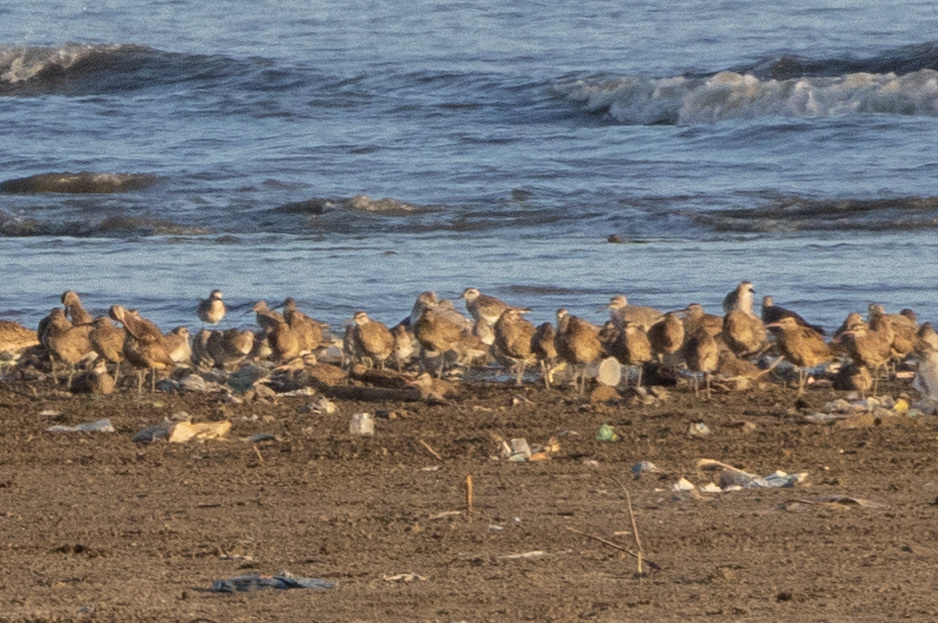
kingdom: Animalia
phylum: Chordata
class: Aves
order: Charadriiformes
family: Scolopacidae
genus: Numenius
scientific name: Numenius phaeopus
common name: Whimbrel
